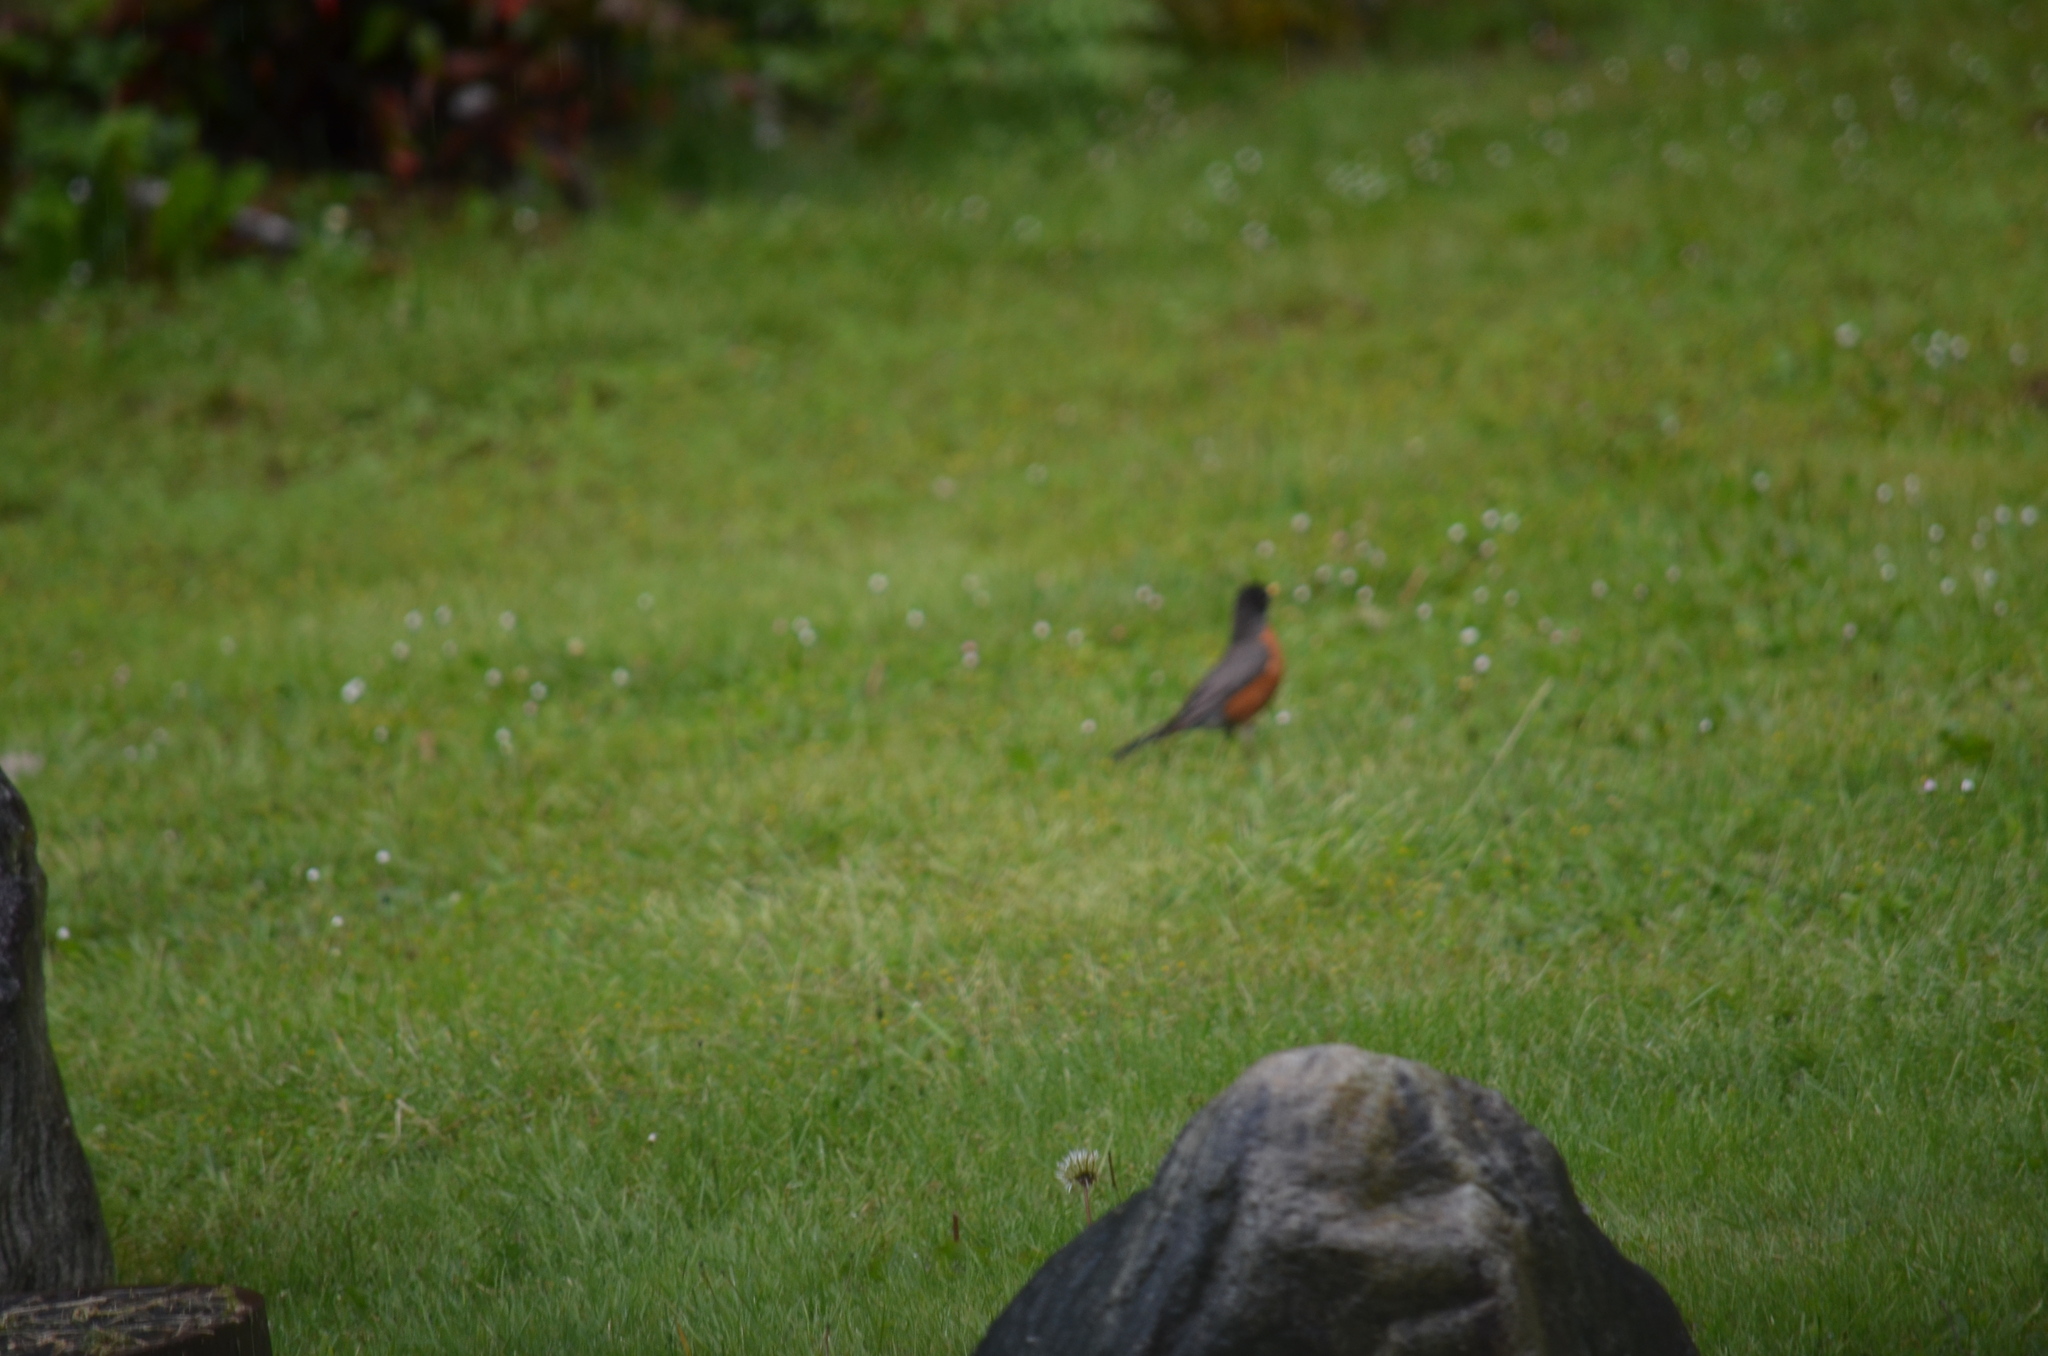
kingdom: Animalia
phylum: Chordata
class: Aves
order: Passeriformes
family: Turdidae
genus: Turdus
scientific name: Turdus migratorius
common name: American robin
